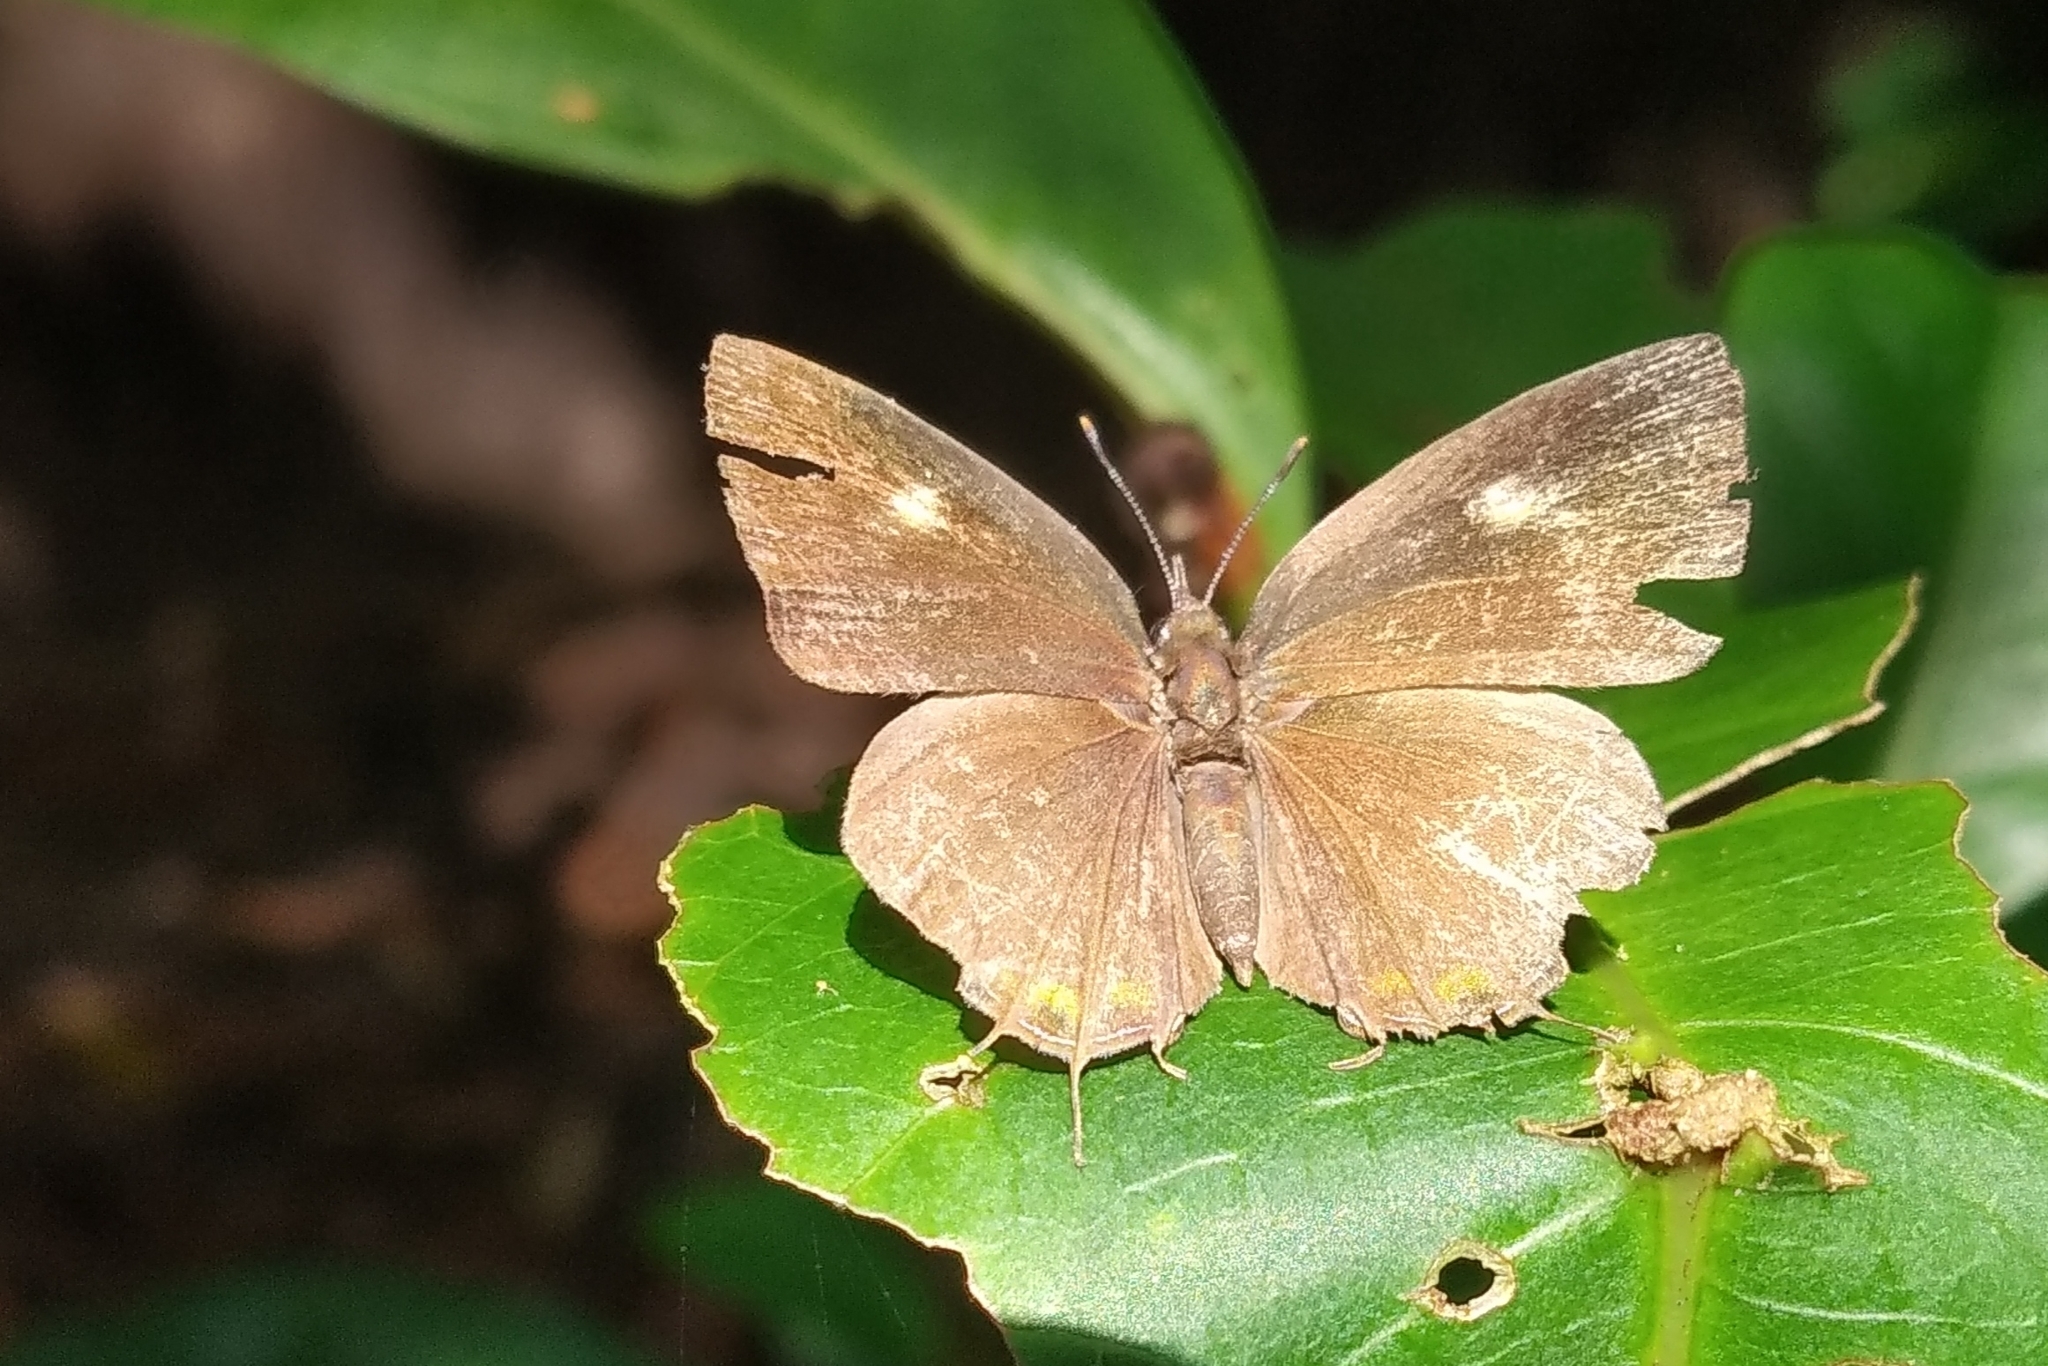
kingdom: Animalia
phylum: Arthropoda
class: Insecta
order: Lepidoptera
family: Lycaenidae
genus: Rathinda
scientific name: Rathinda amor
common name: Monkey puzzle
